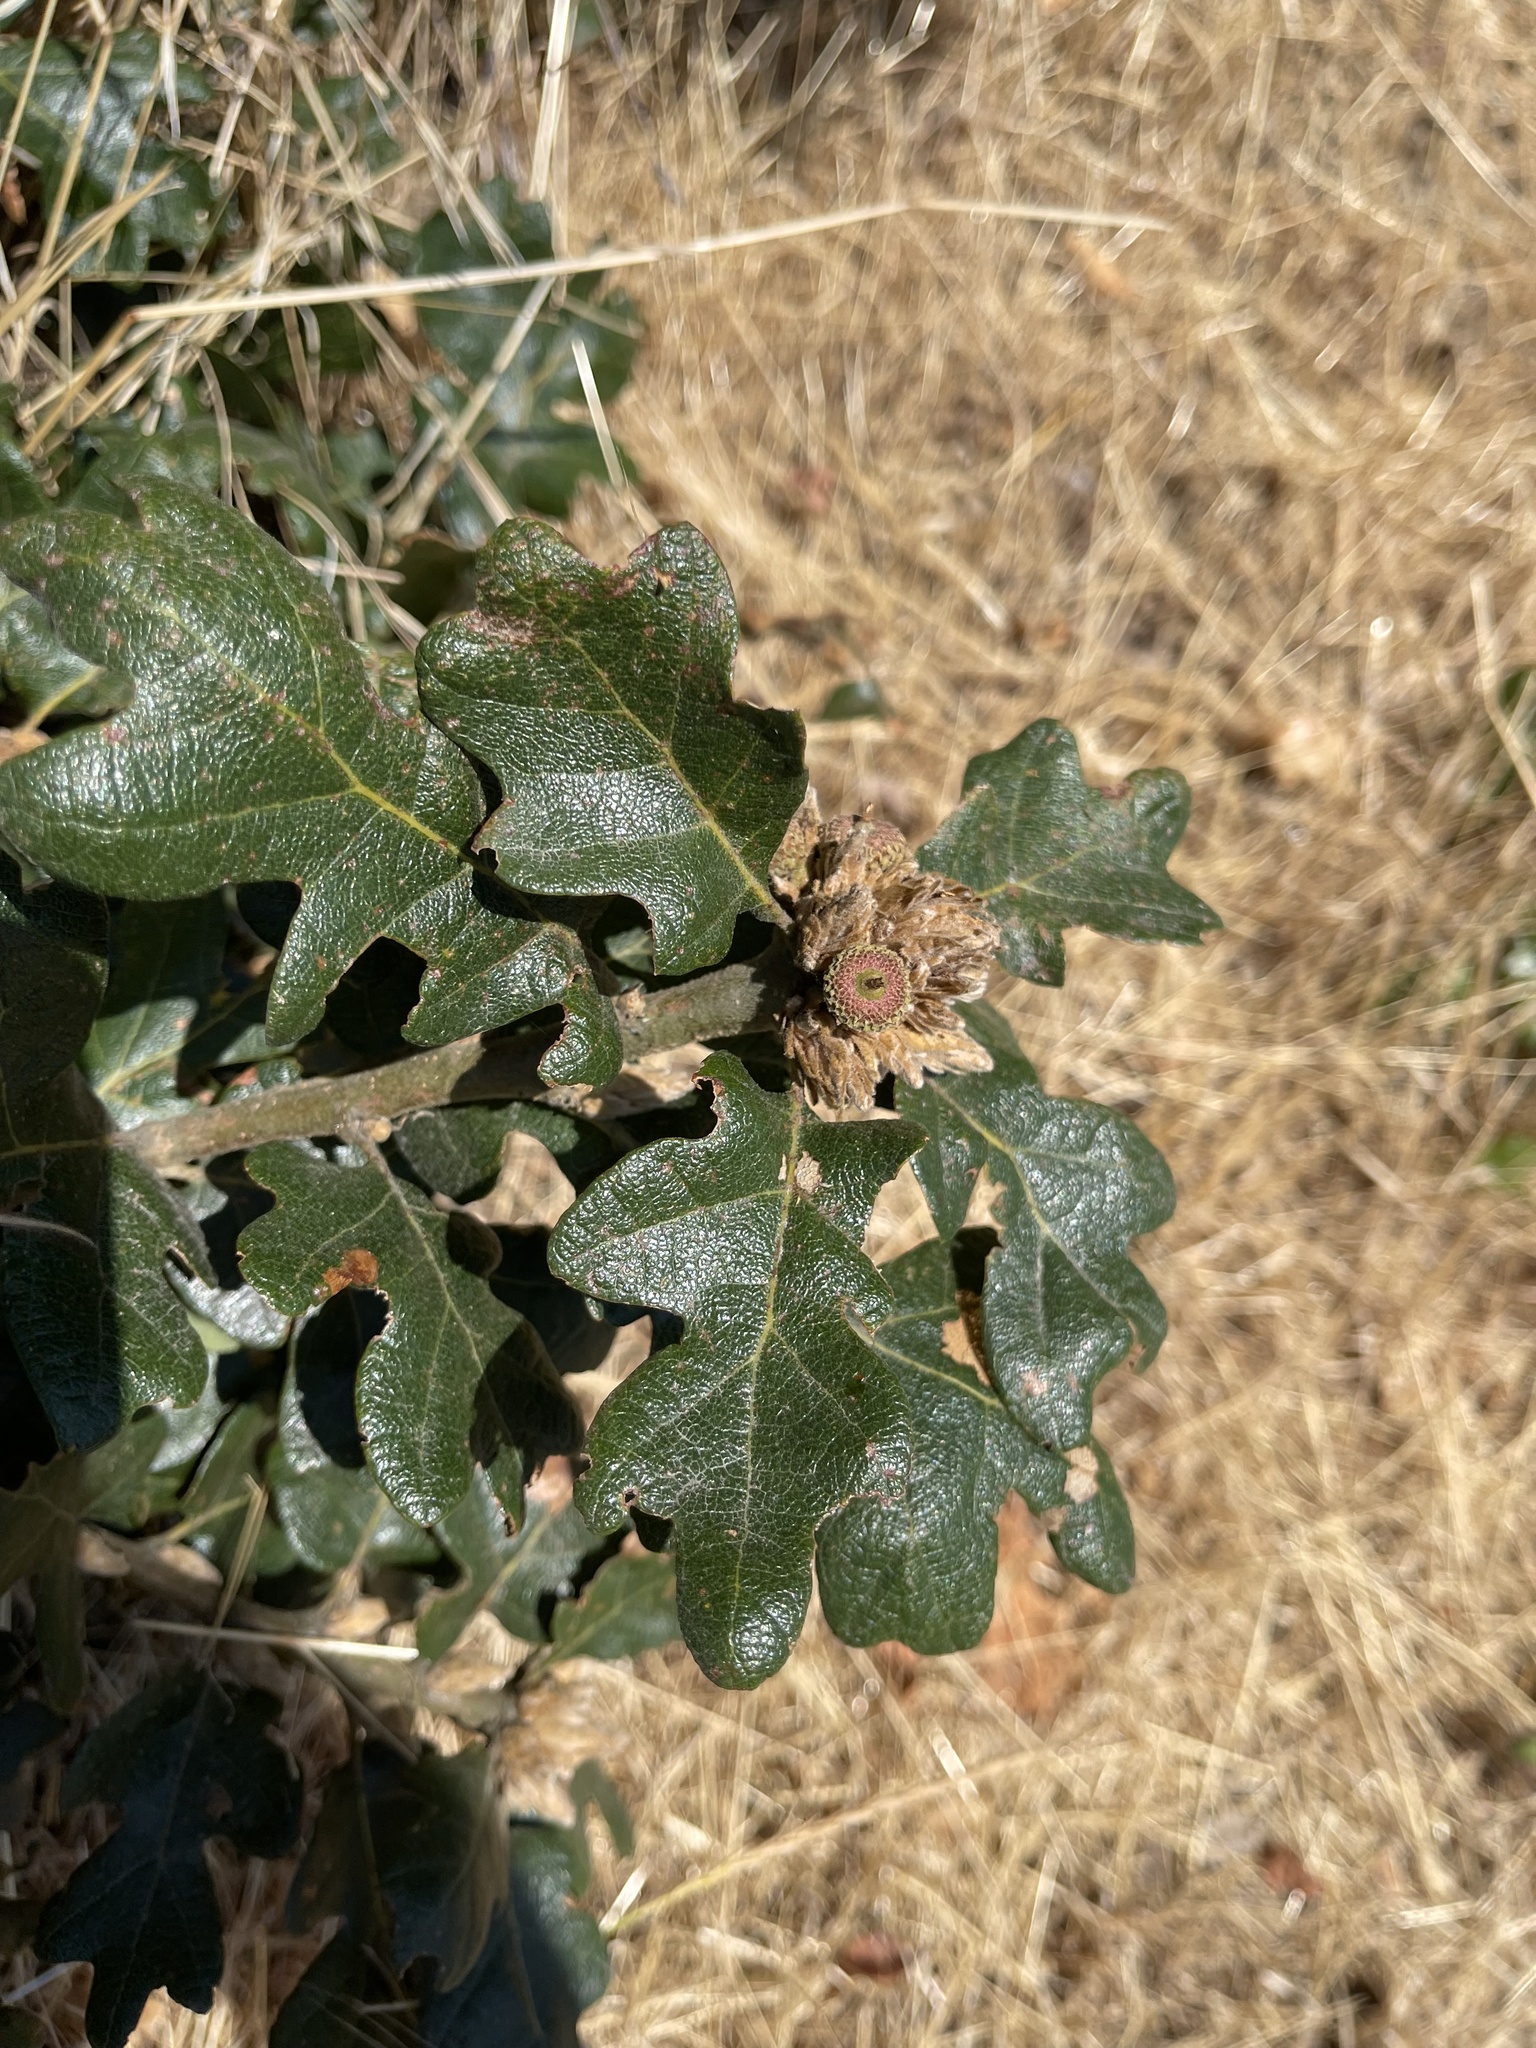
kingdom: Plantae
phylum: Tracheophyta
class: Magnoliopsida
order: Fagales
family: Fagaceae
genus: Quercus
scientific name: Quercus garryana
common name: Garry oak
